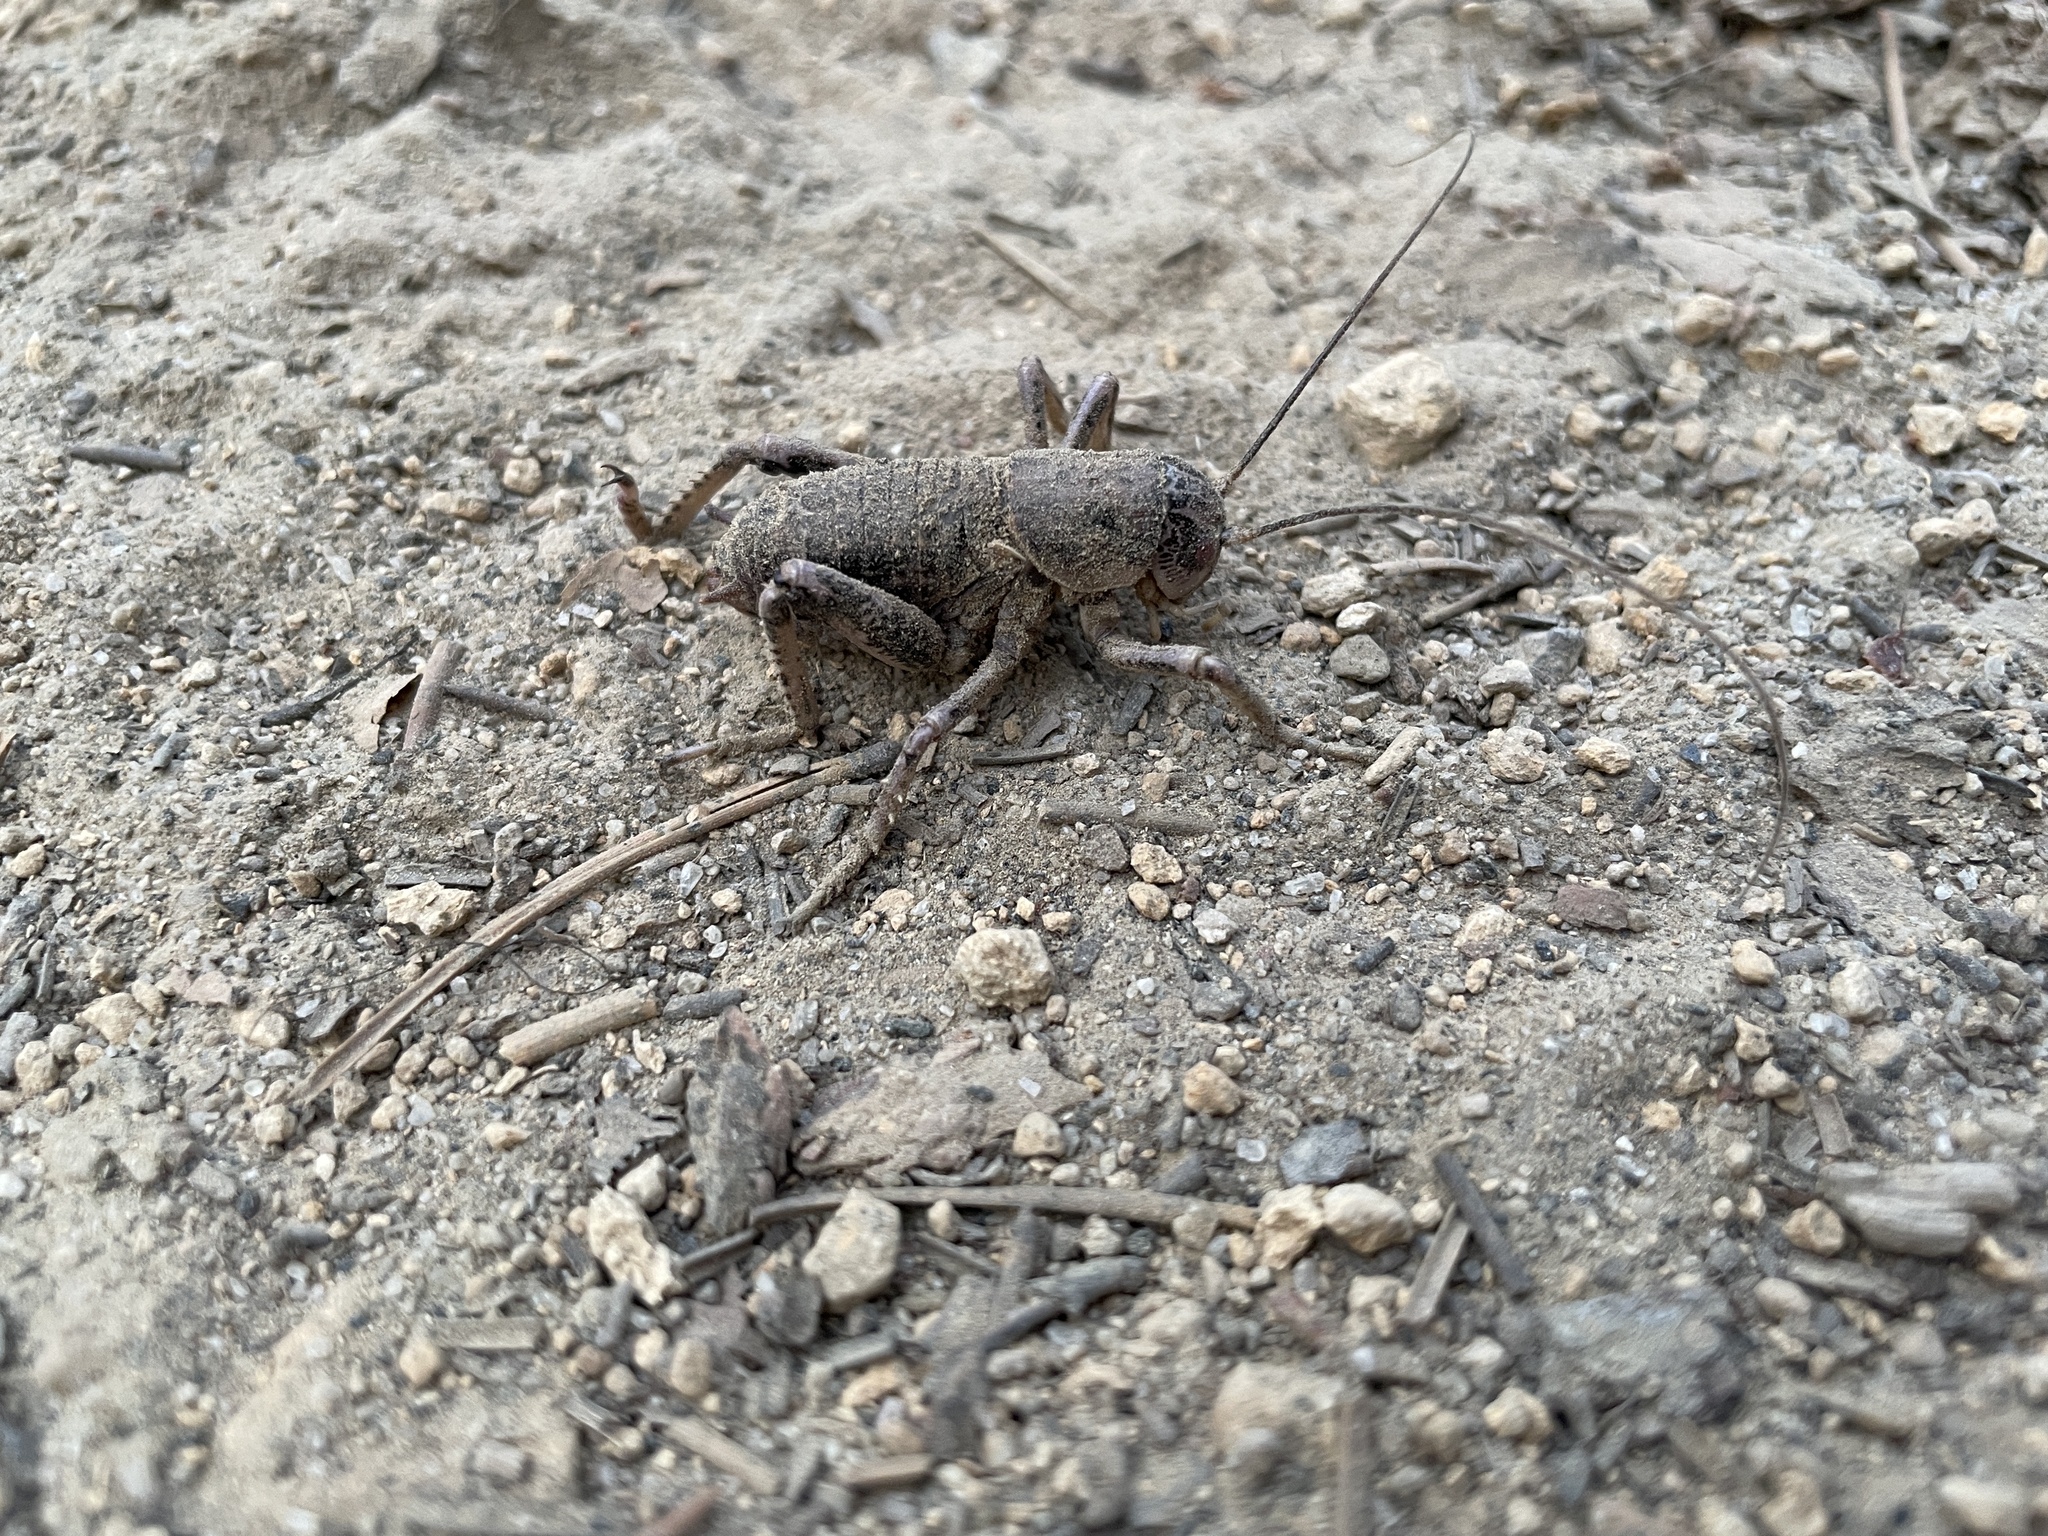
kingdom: Animalia
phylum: Arthropoda
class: Insecta
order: Orthoptera
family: Prophalangopsidae
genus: Cyphoderris
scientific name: Cyphoderris monstrosa
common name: Great grig
